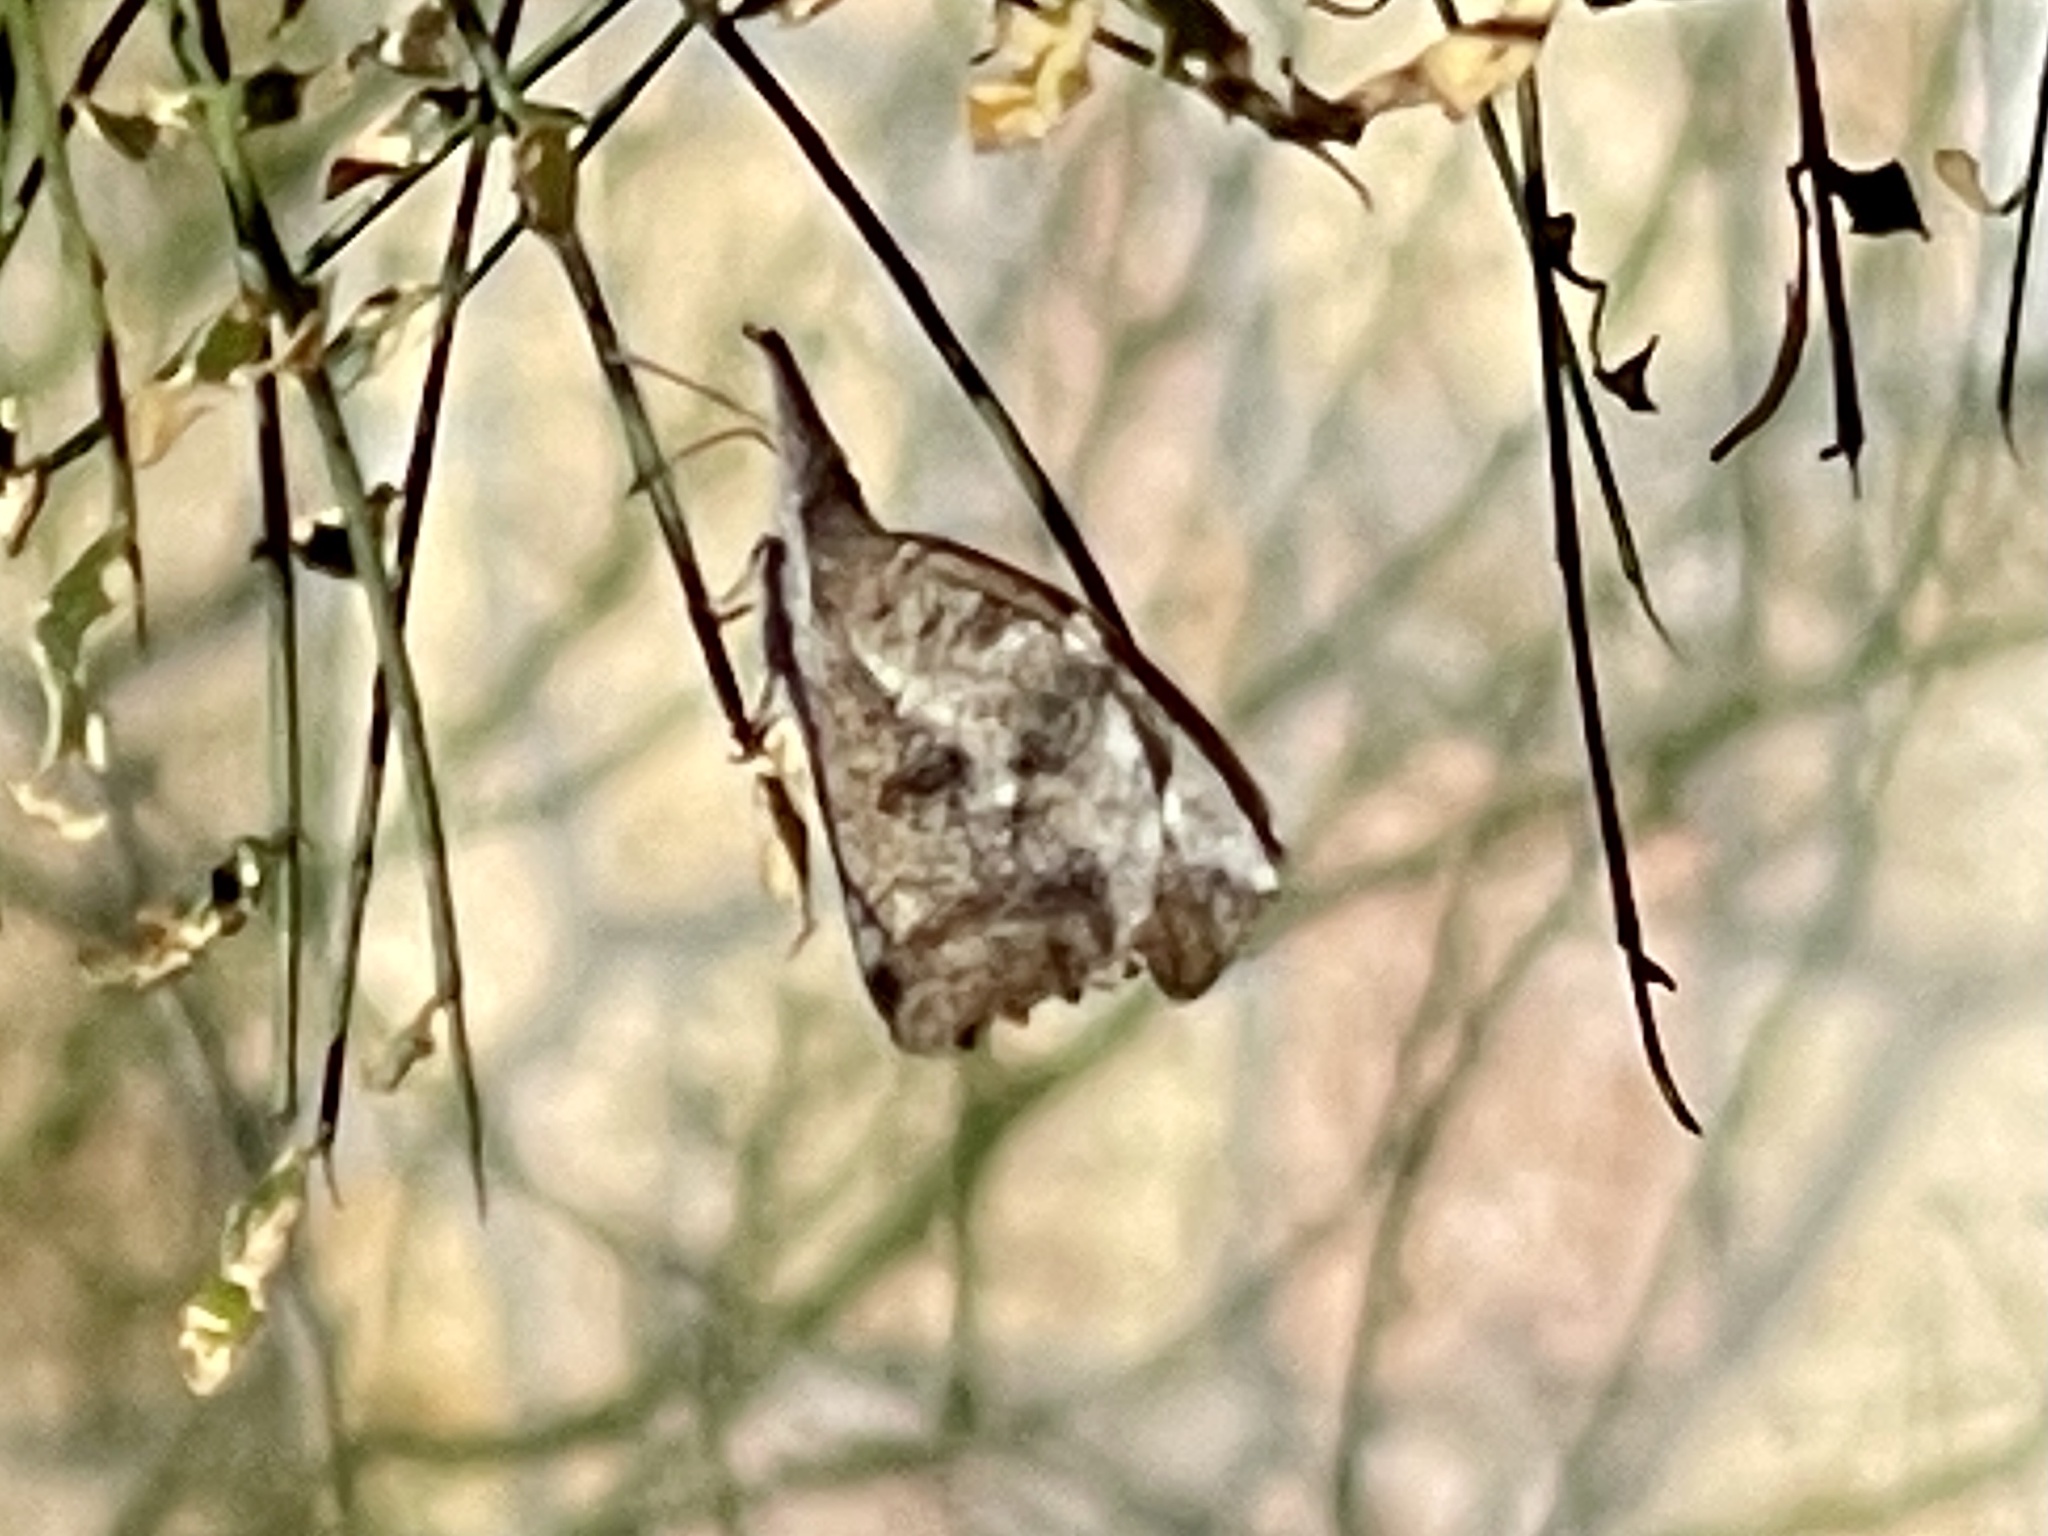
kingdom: Animalia
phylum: Arthropoda
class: Insecta
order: Lepidoptera
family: Nymphalidae
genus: Libytheana
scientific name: Libytheana carinenta
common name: American snout
